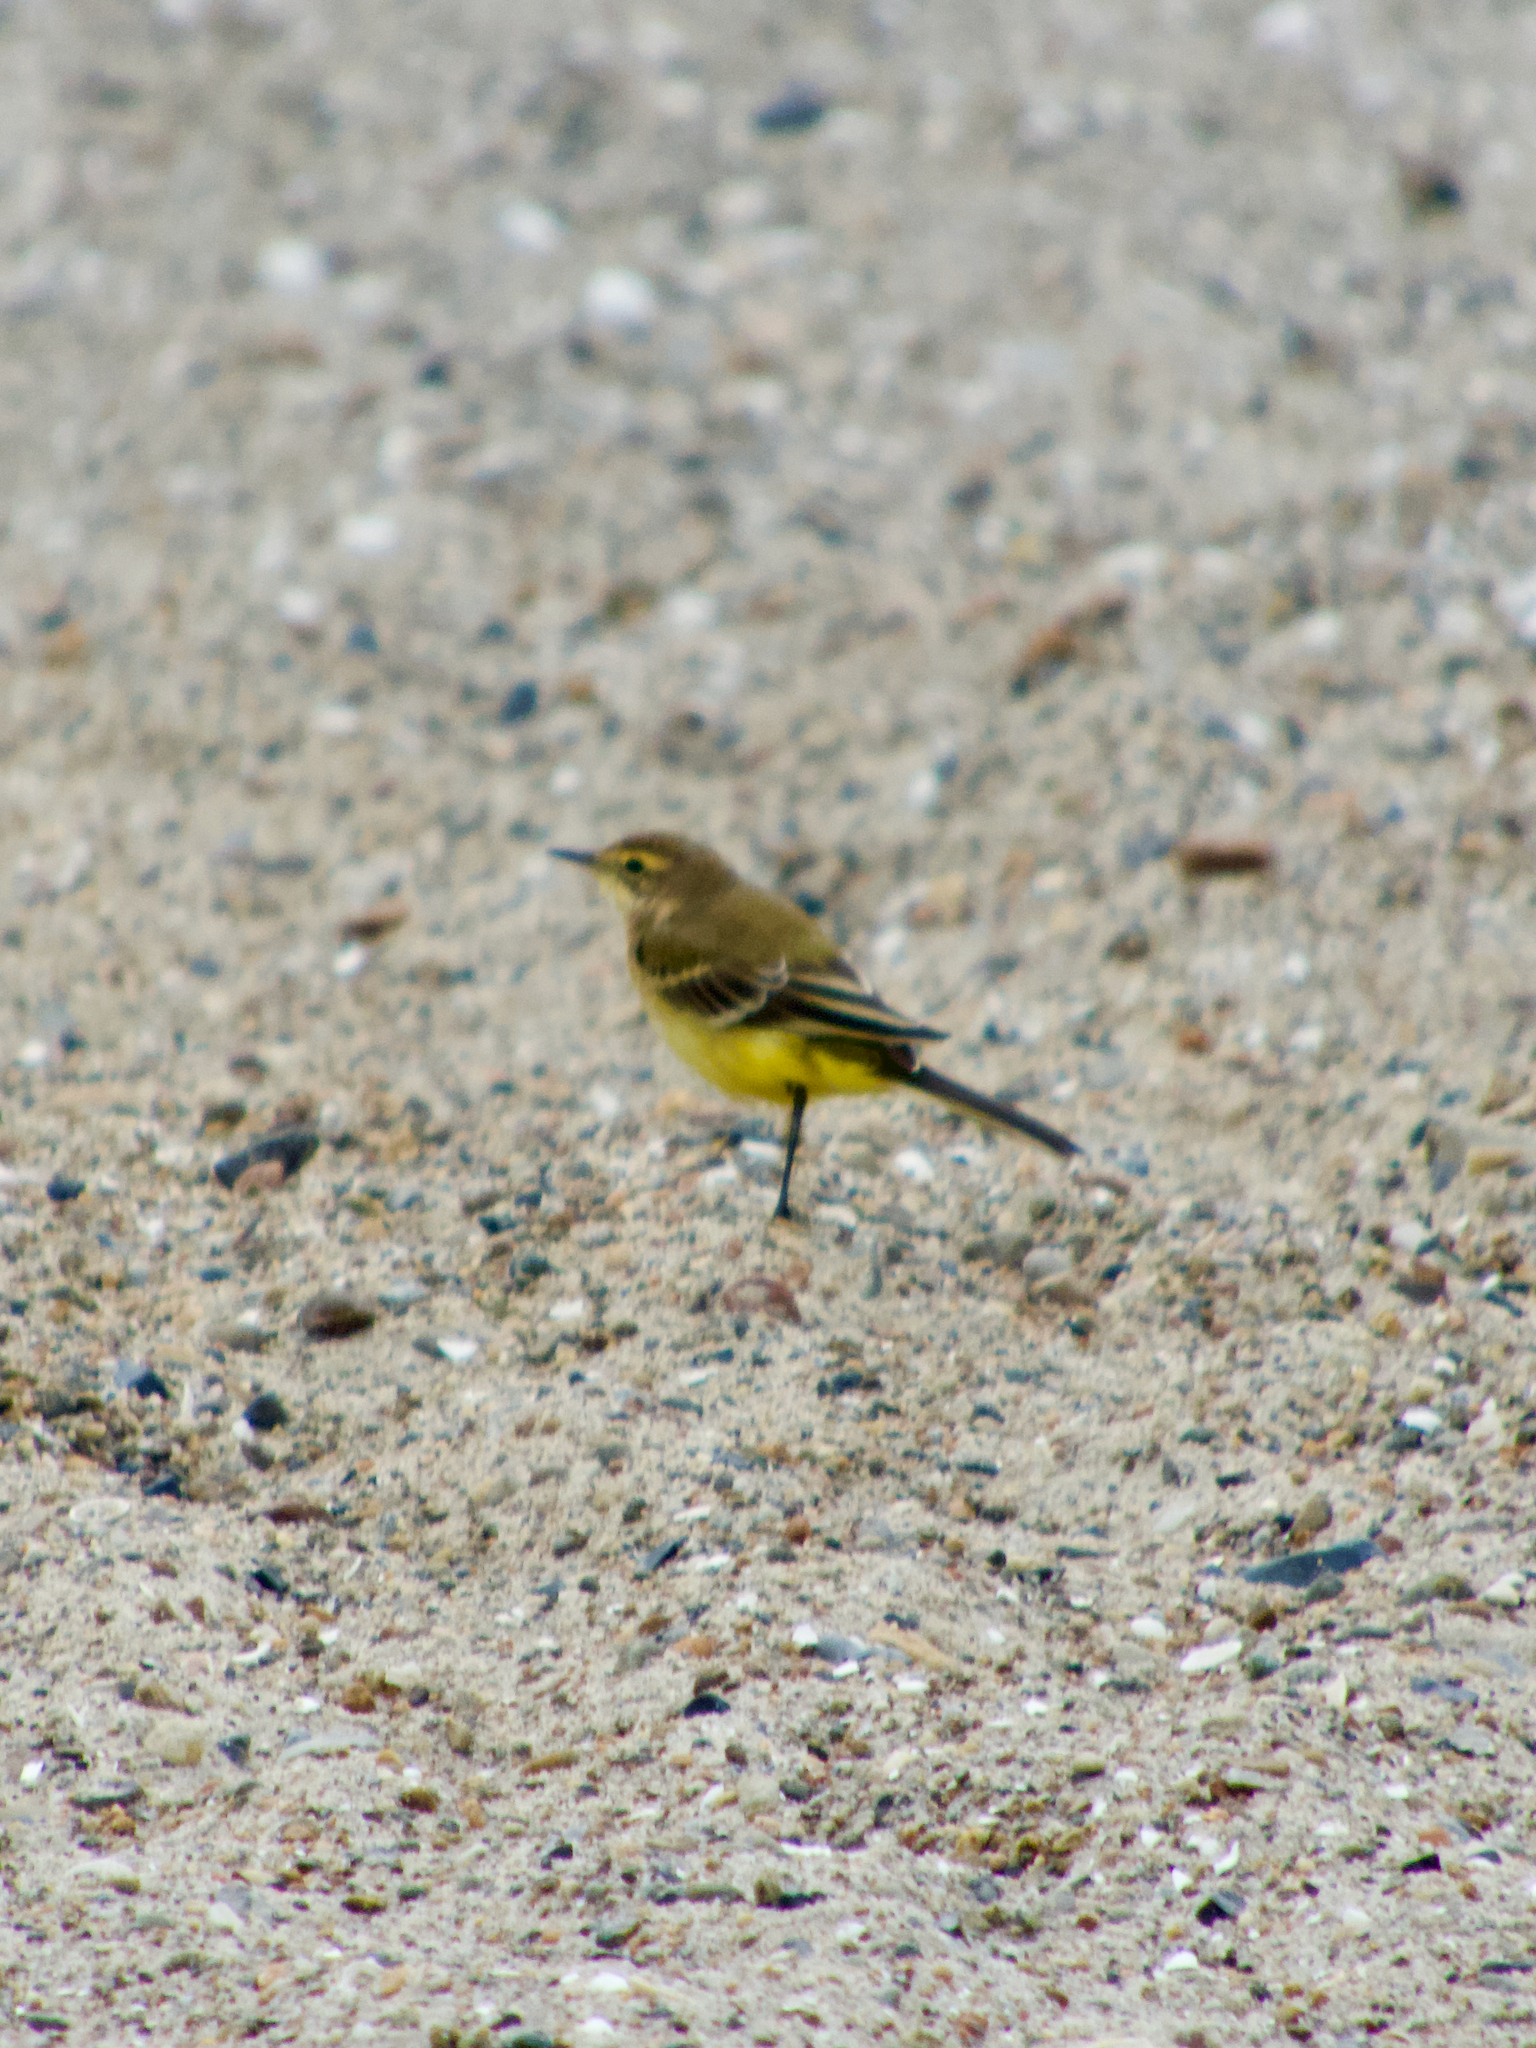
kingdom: Animalia
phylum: Chordata
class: Aves
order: Passeriformes
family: Motacillidae
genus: Motacilla
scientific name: Motacilla flava
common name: Western yellow wagtail
